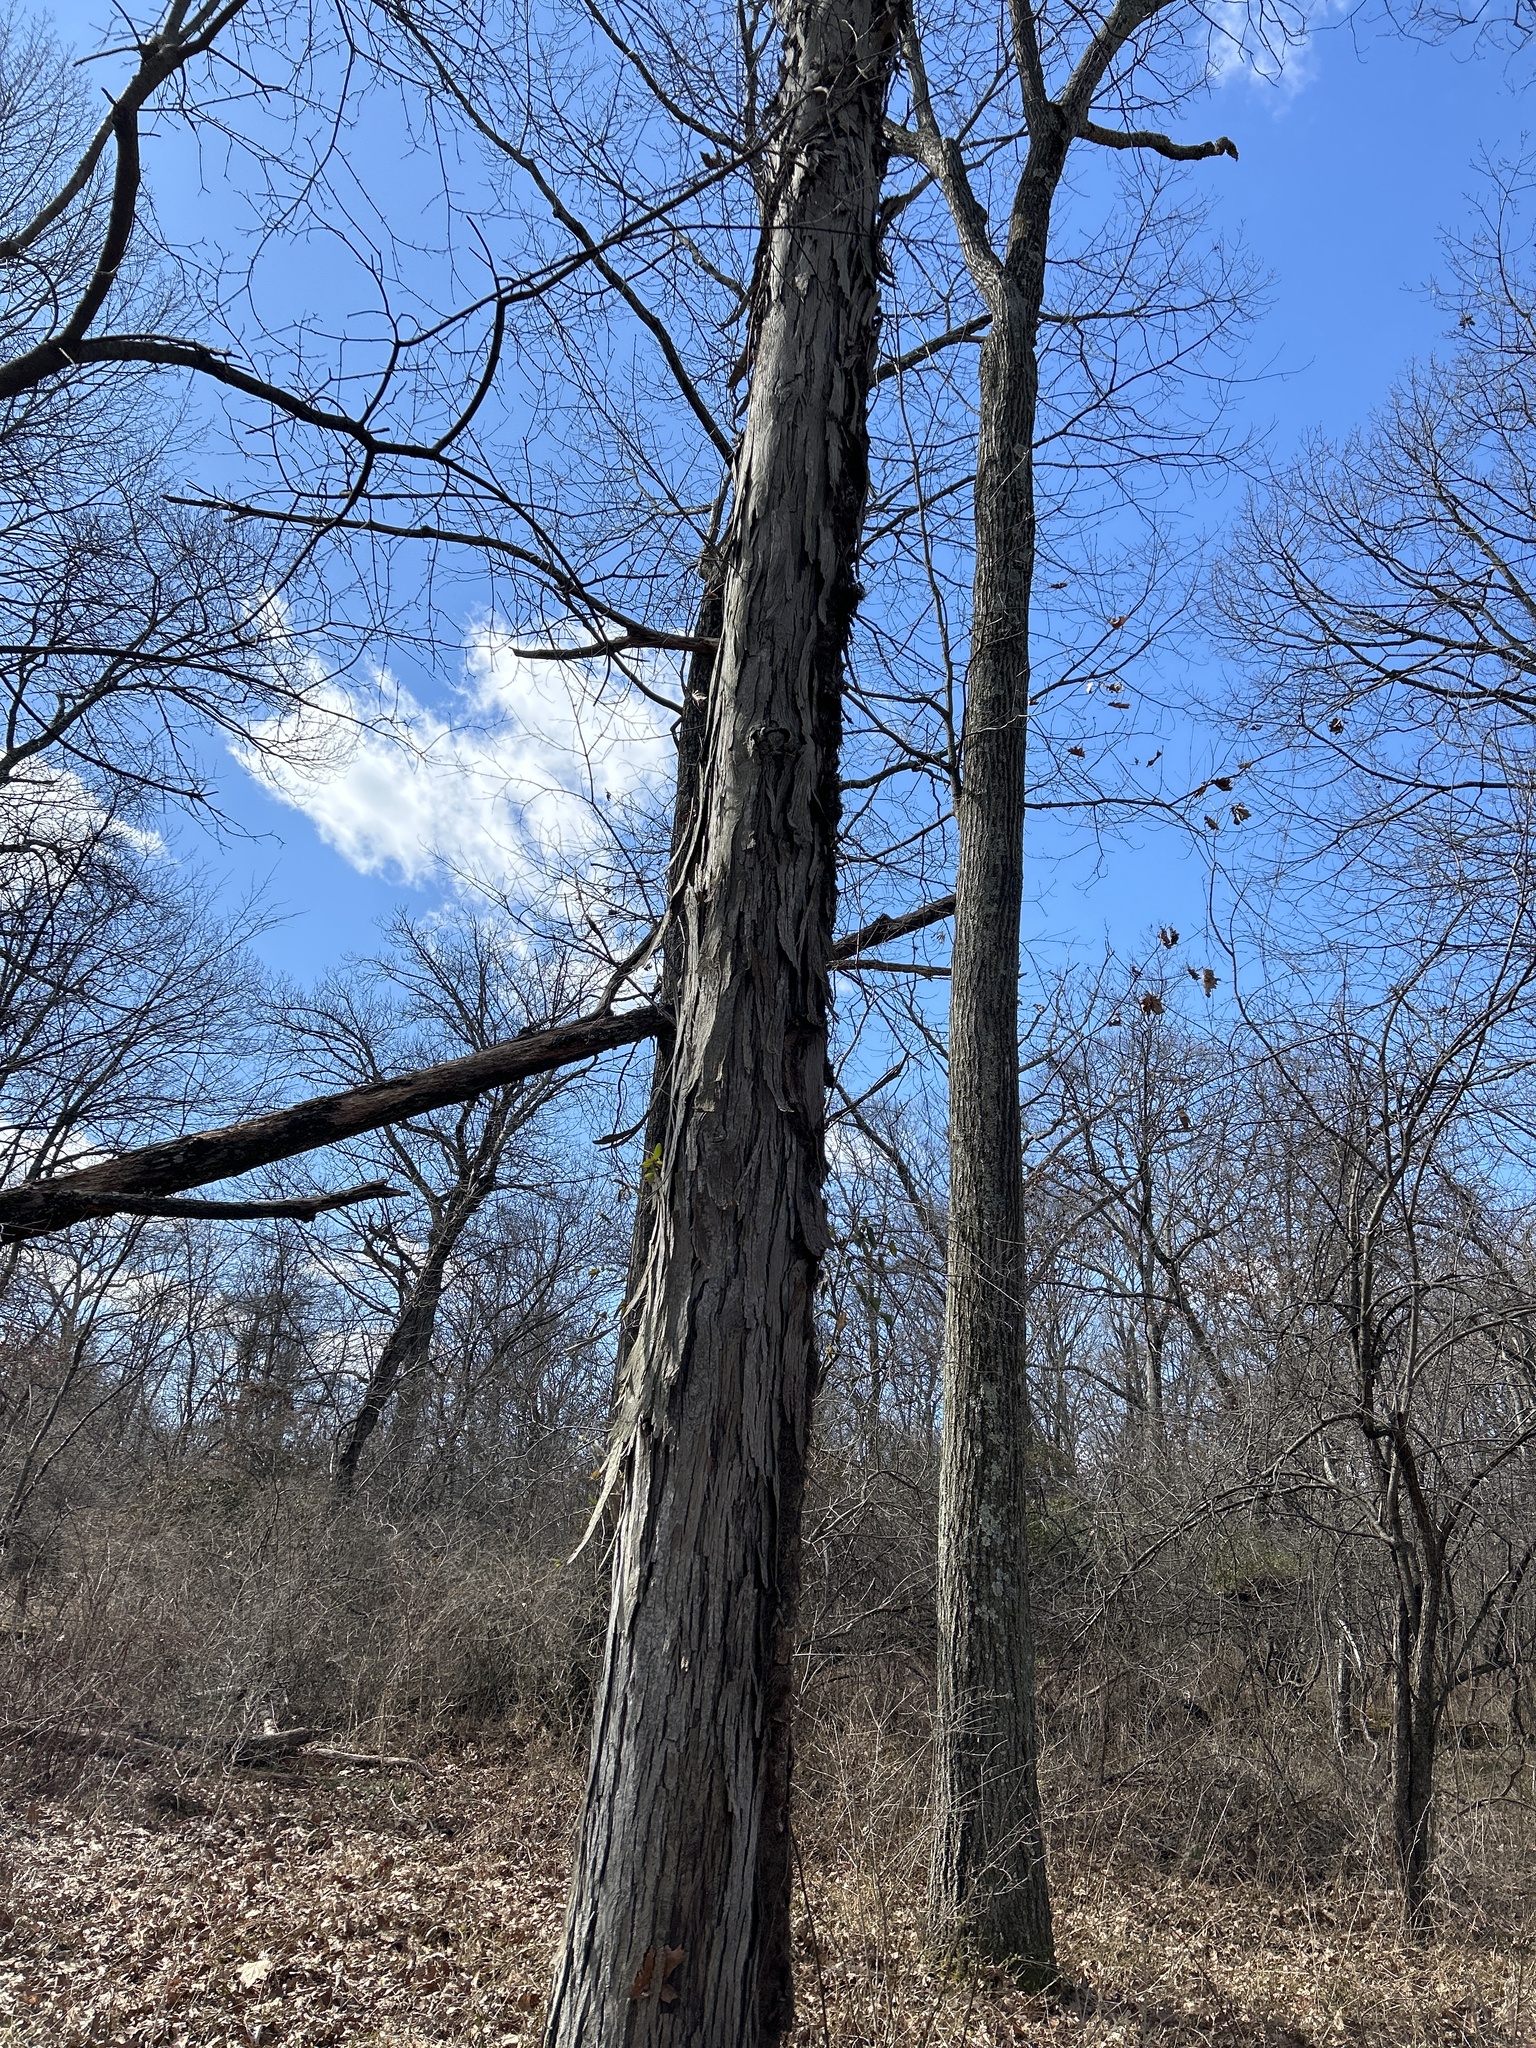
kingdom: Plantae
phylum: Tracheophyta
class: Magnoliopsida
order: Fagales
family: Juglandaceae
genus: Carya
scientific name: Carya ovata
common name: Shagbark hickory
